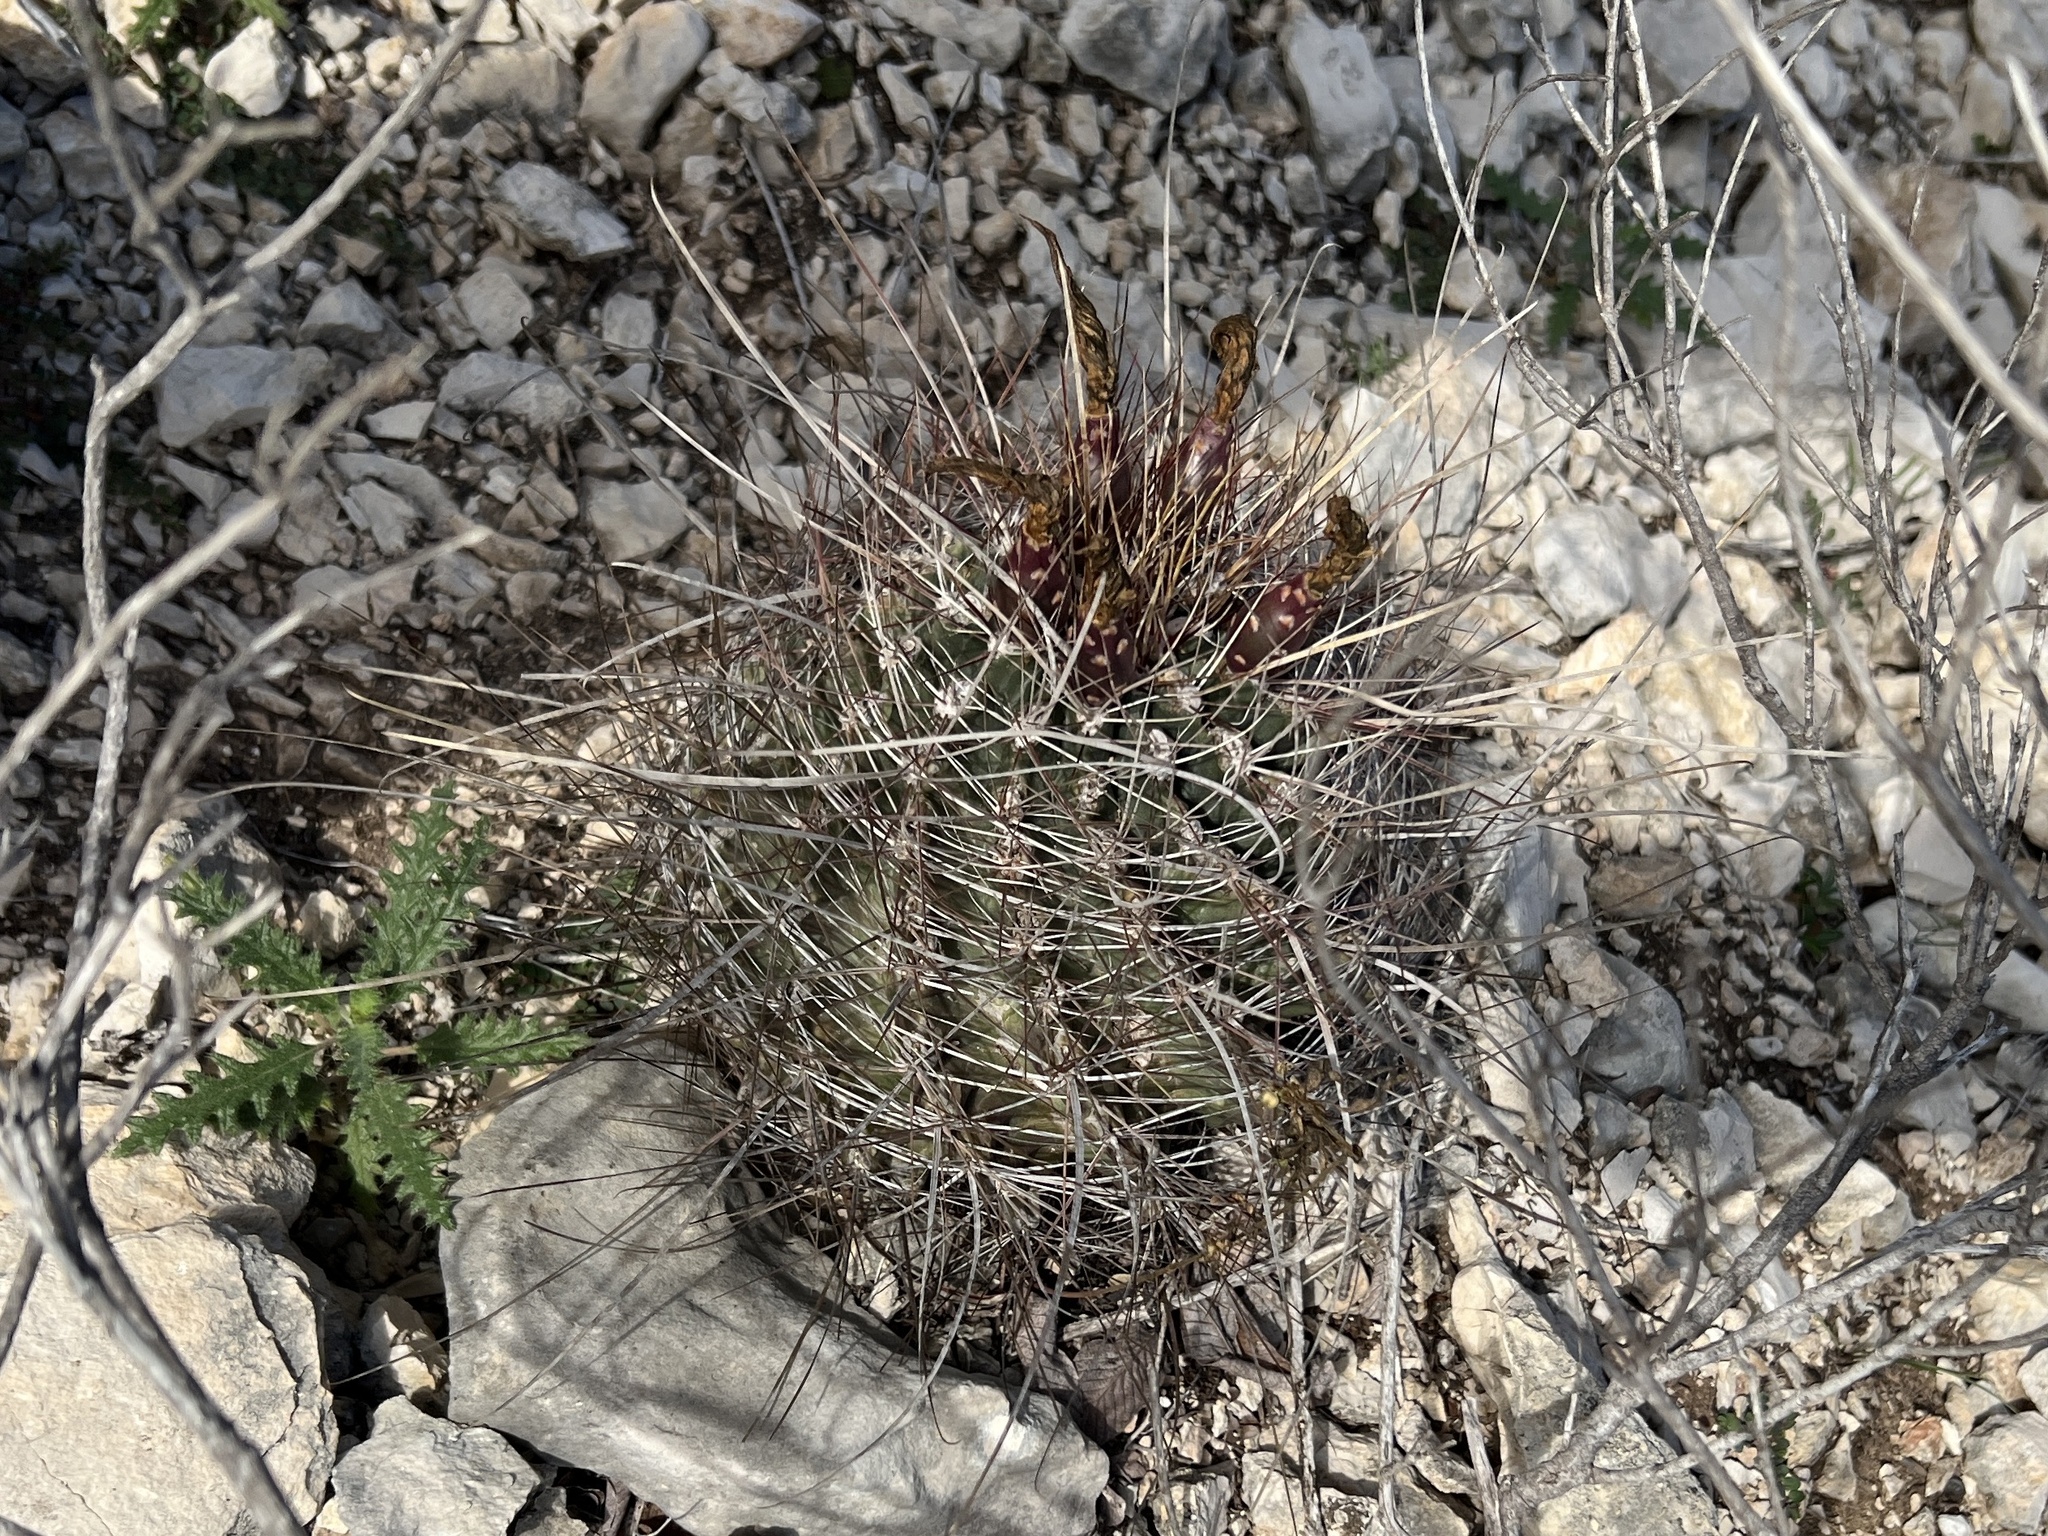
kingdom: Plantae
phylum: Tracheophyta
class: Magnoliopsida
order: Caryophyllales
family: Cactaceae
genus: Bisnaga
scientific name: Bisnaga hamatacantha
